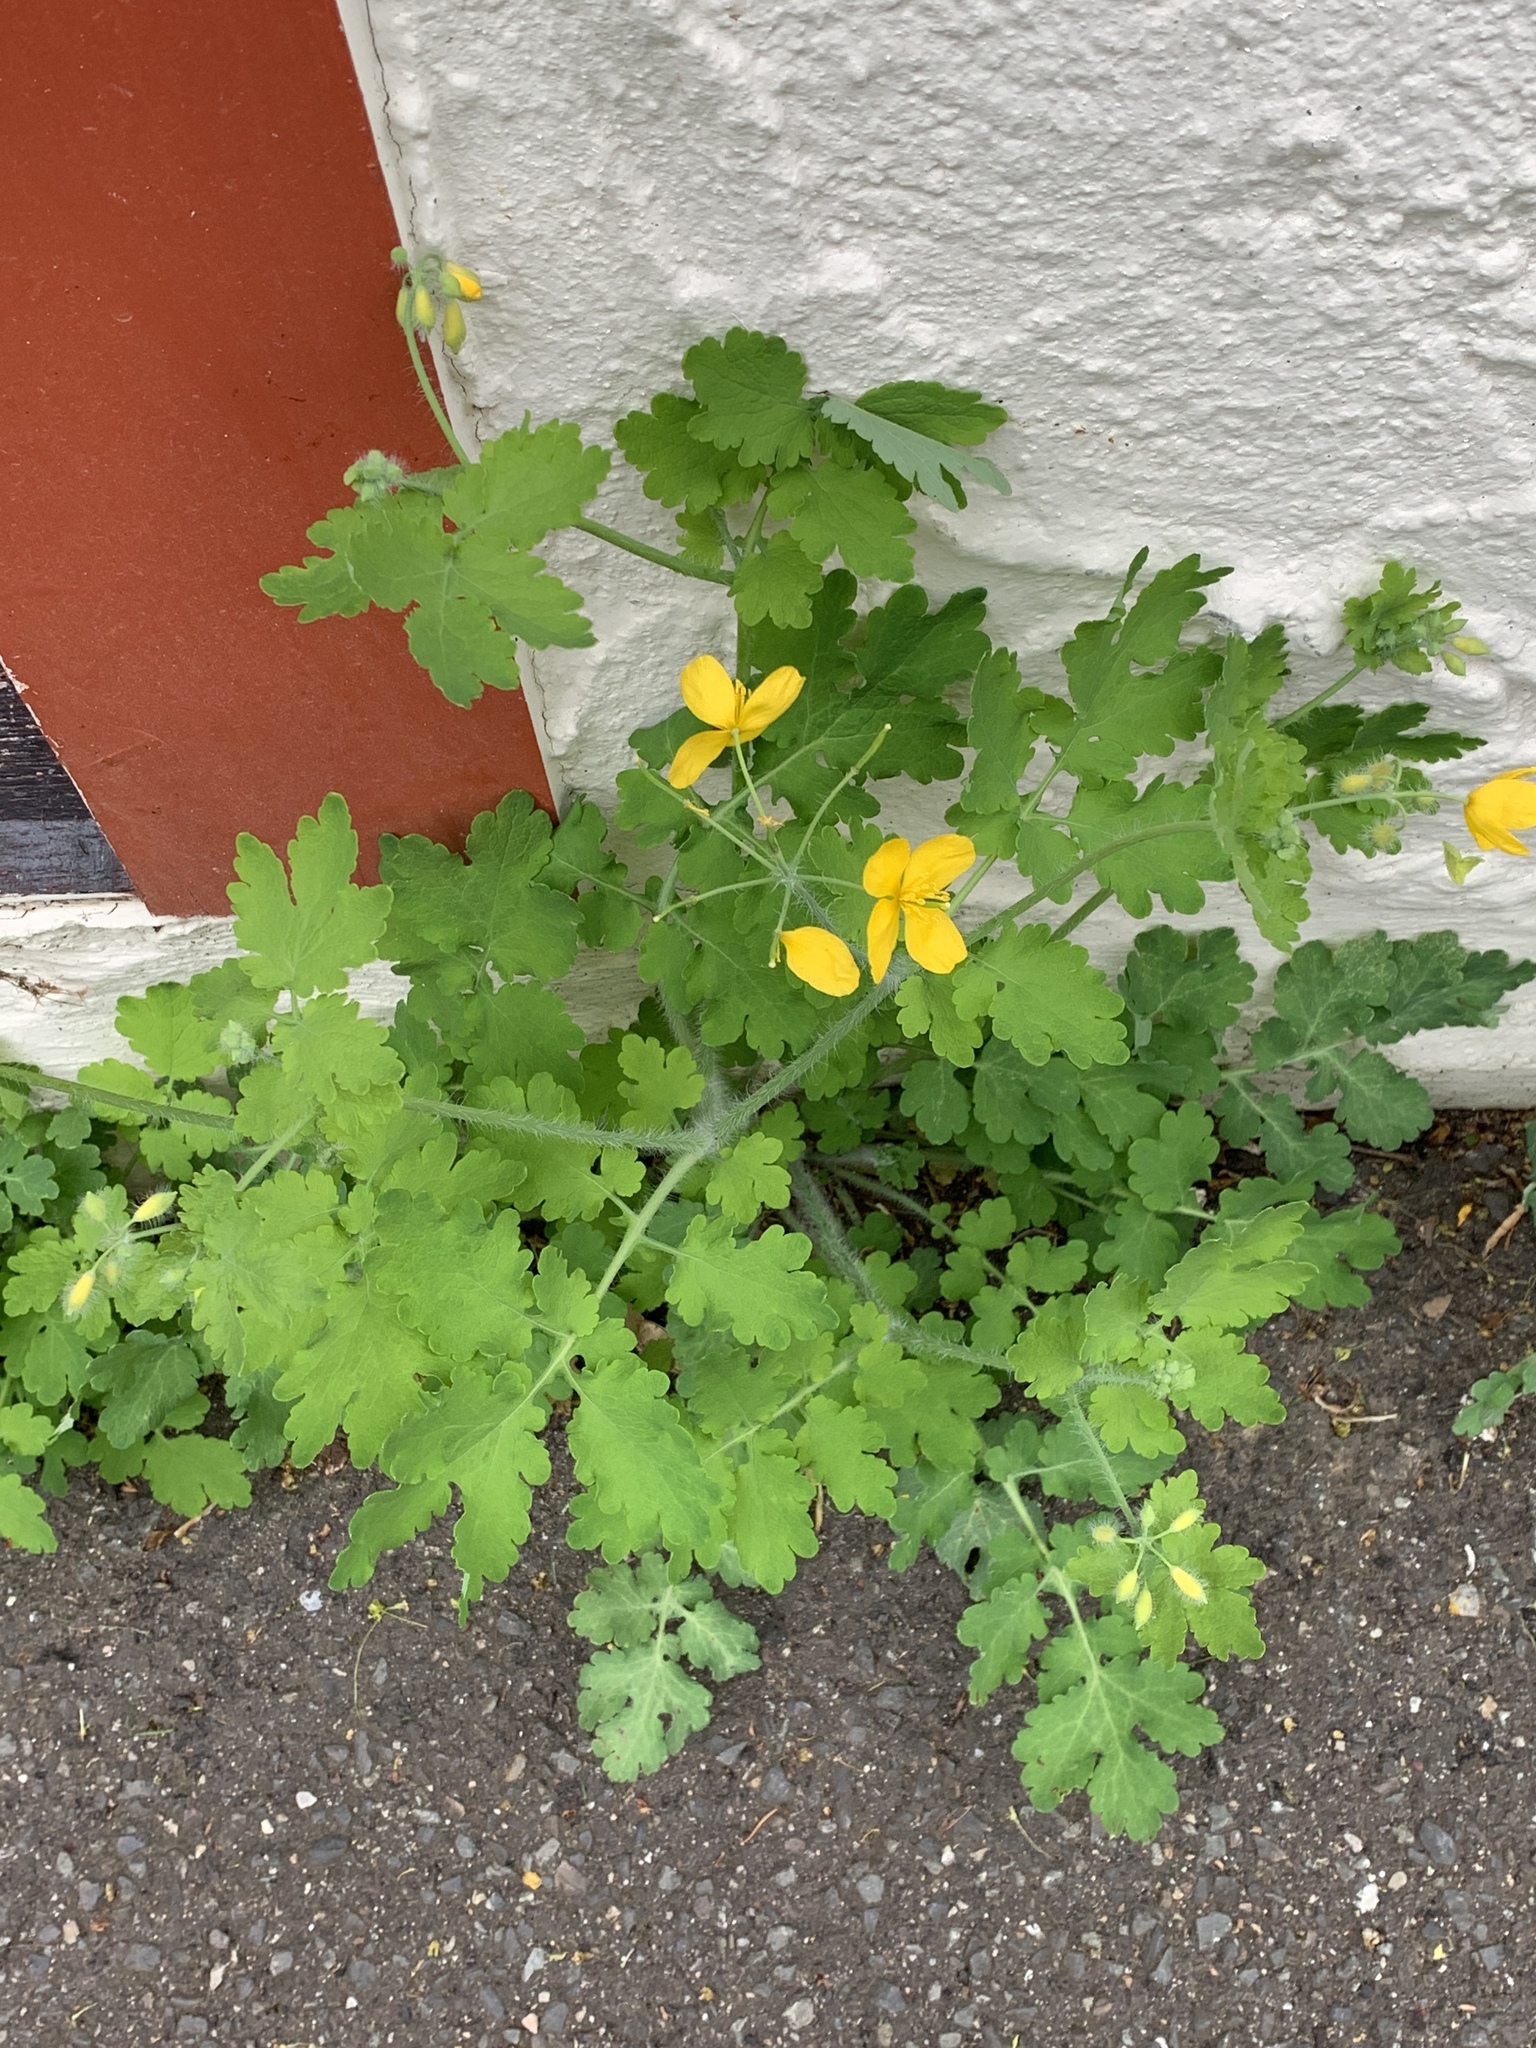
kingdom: Plantae
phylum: Tracheophyta
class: Magnoliopsida
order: Ranunculales
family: Papaveraceae
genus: Chelidonium
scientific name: Chelidonium majus
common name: Greater celandine
